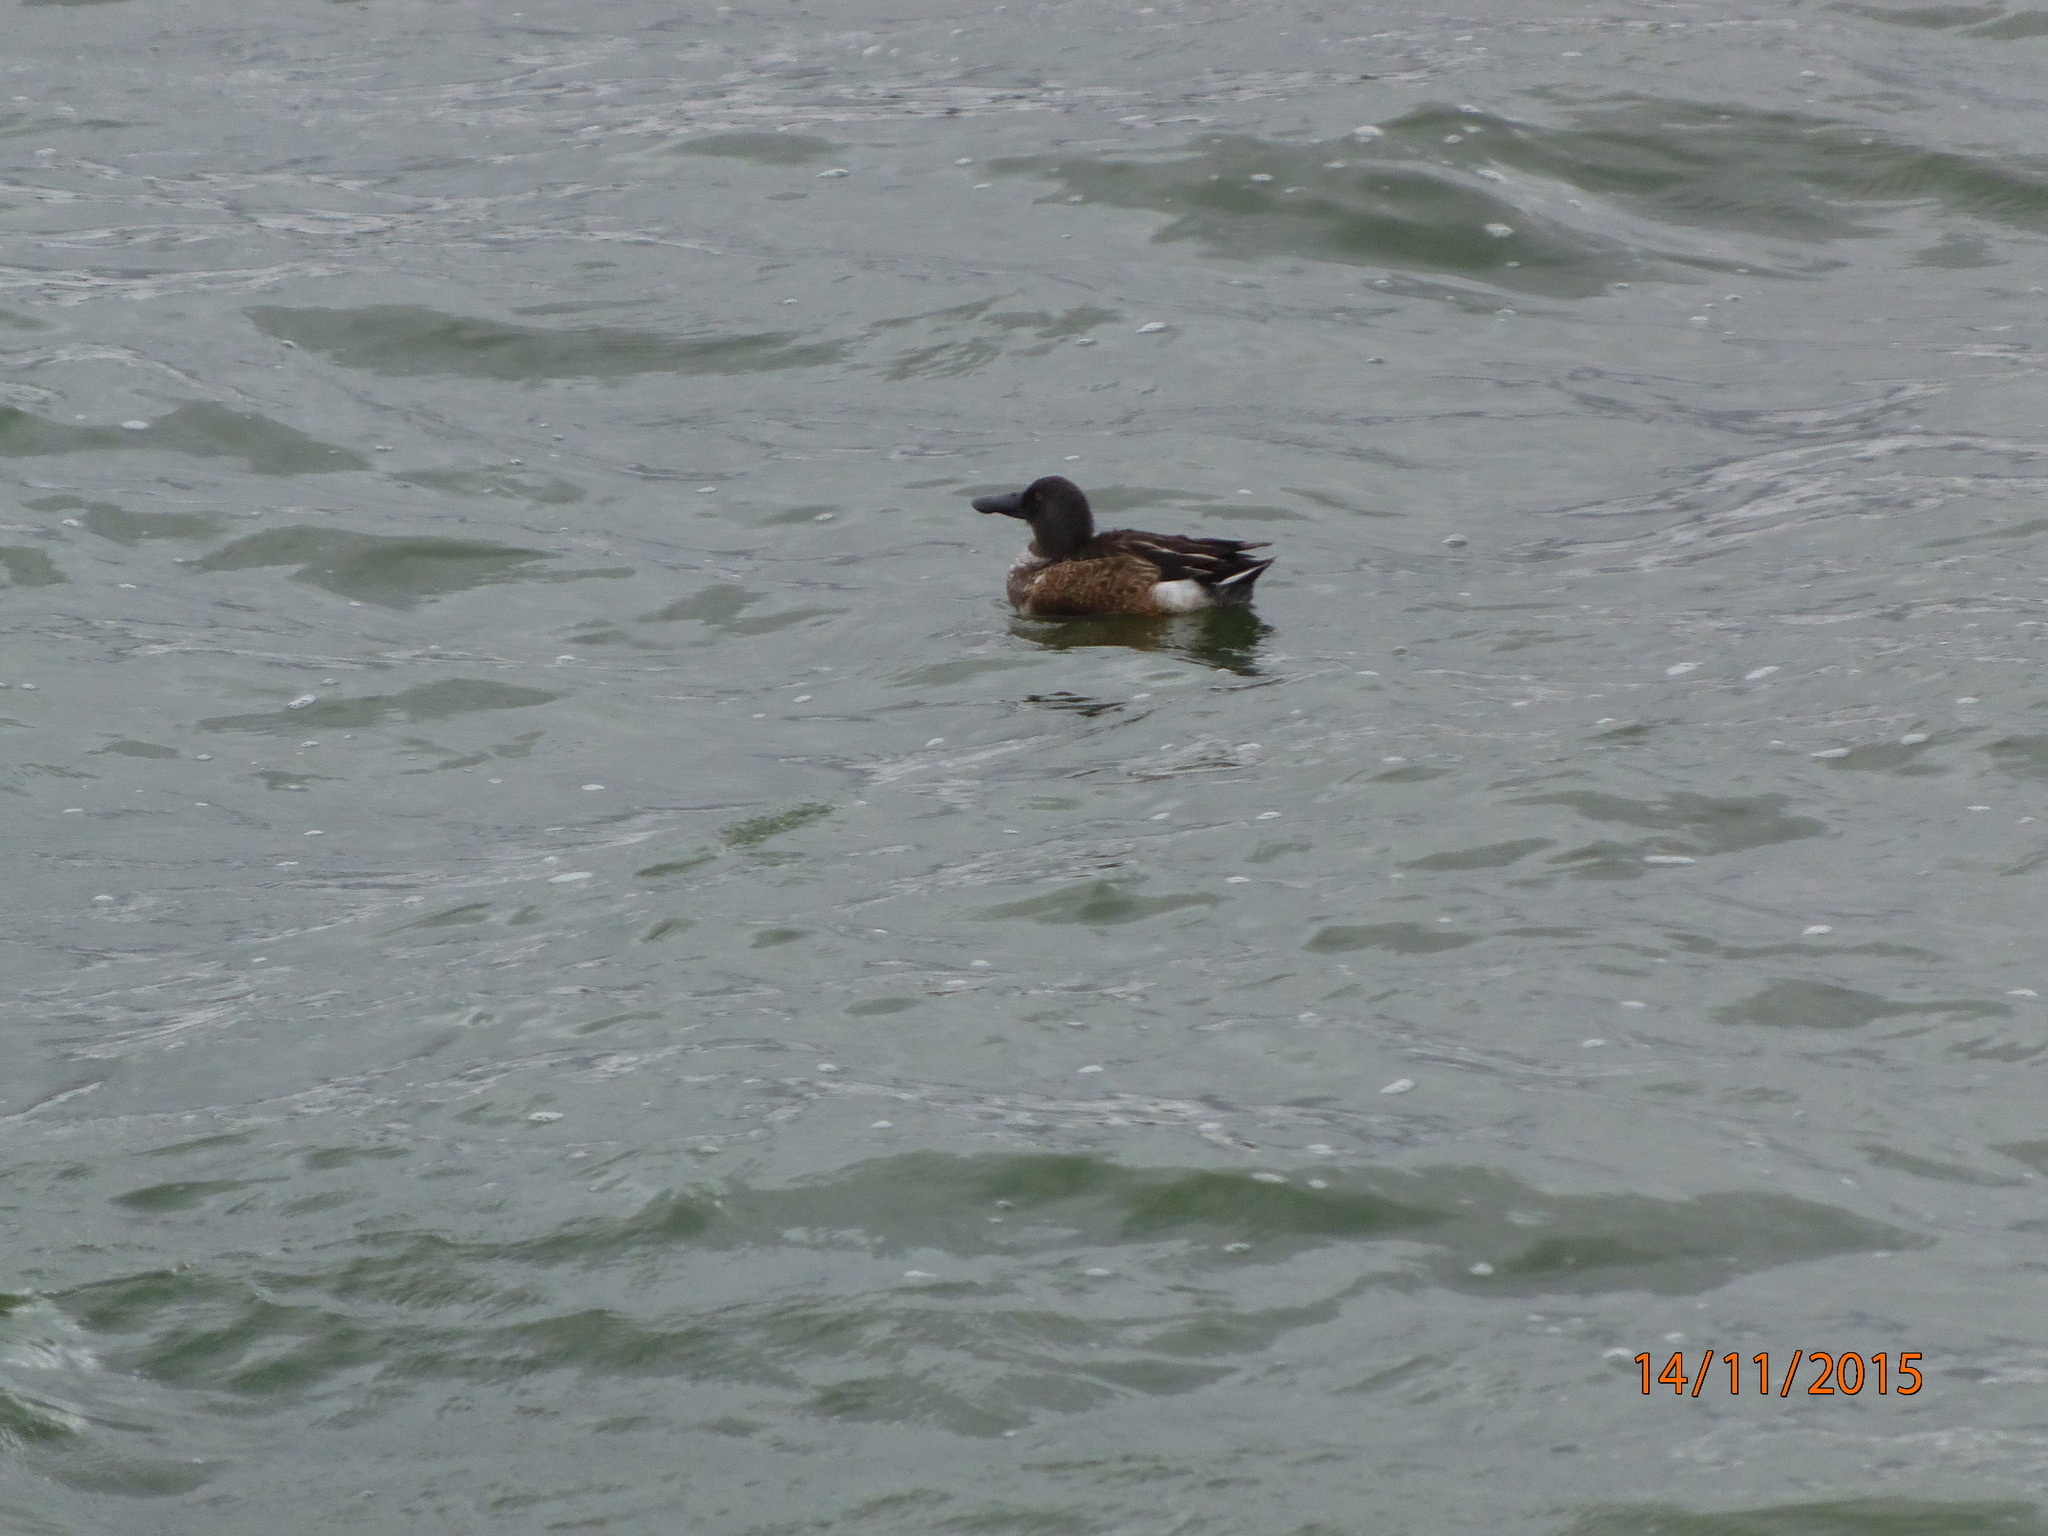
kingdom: Animalia
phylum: Chordata
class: Aves
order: Anseriformes
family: Anatidae
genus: Spatula
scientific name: Spatula clypeata
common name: Northern shoveler
